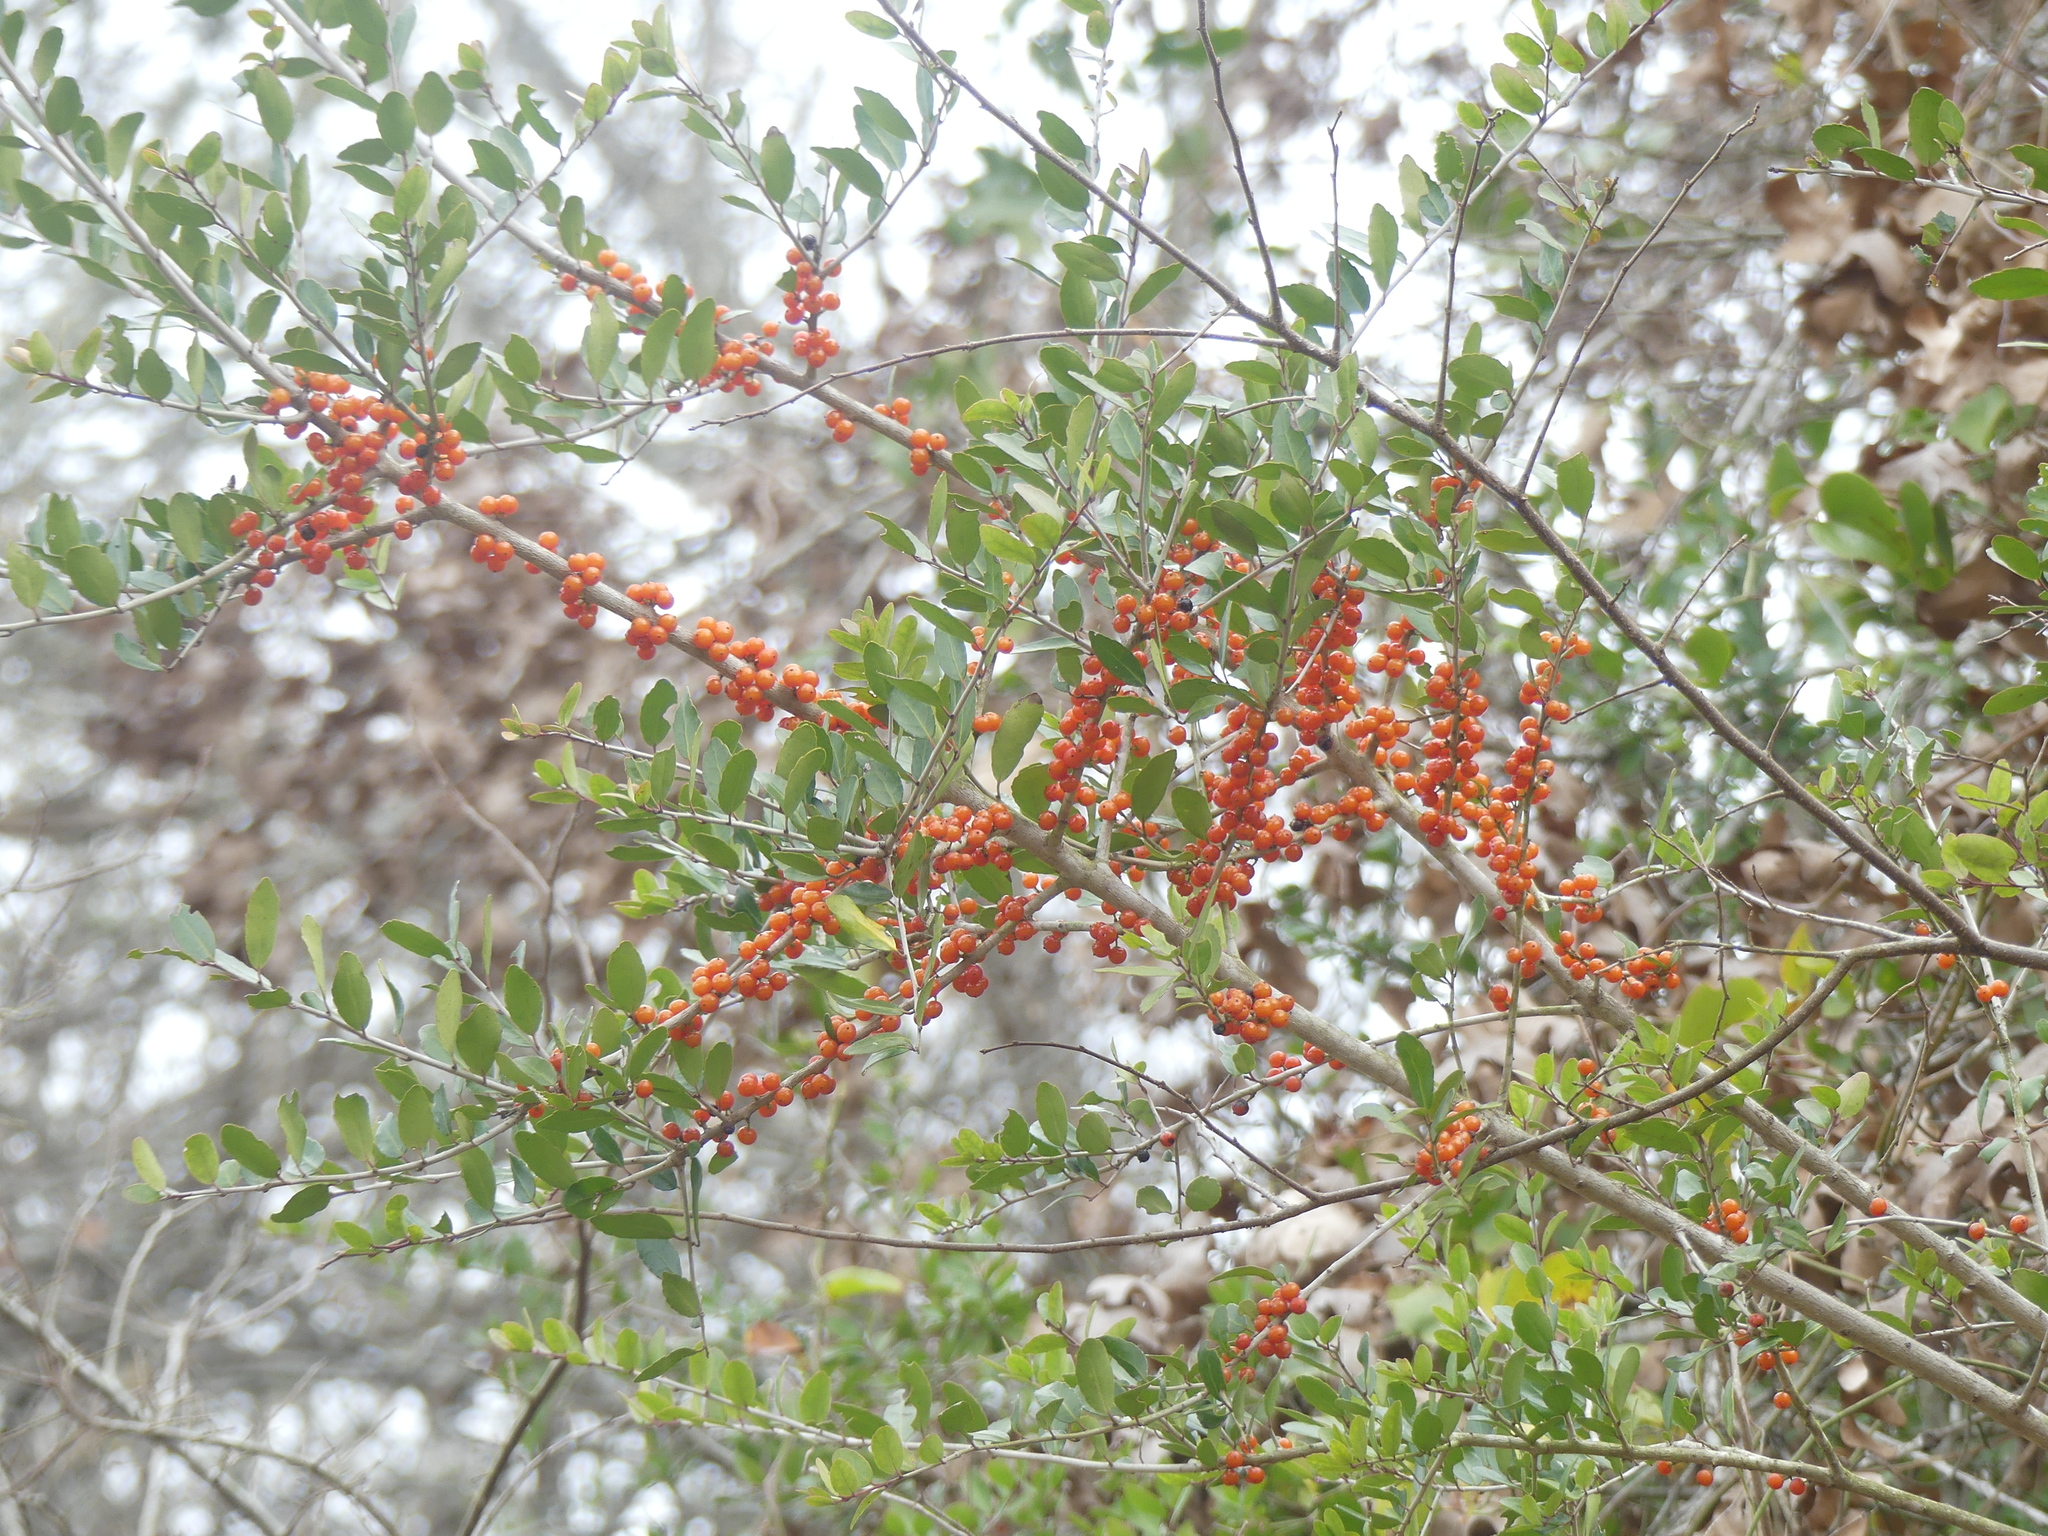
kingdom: Plantae
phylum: Tracheophyta
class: Magnoliopsida
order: Aquifoliales
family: Aquifoliaceae
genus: Ilex
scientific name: Ilex vomitoria
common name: Yaupon holly
